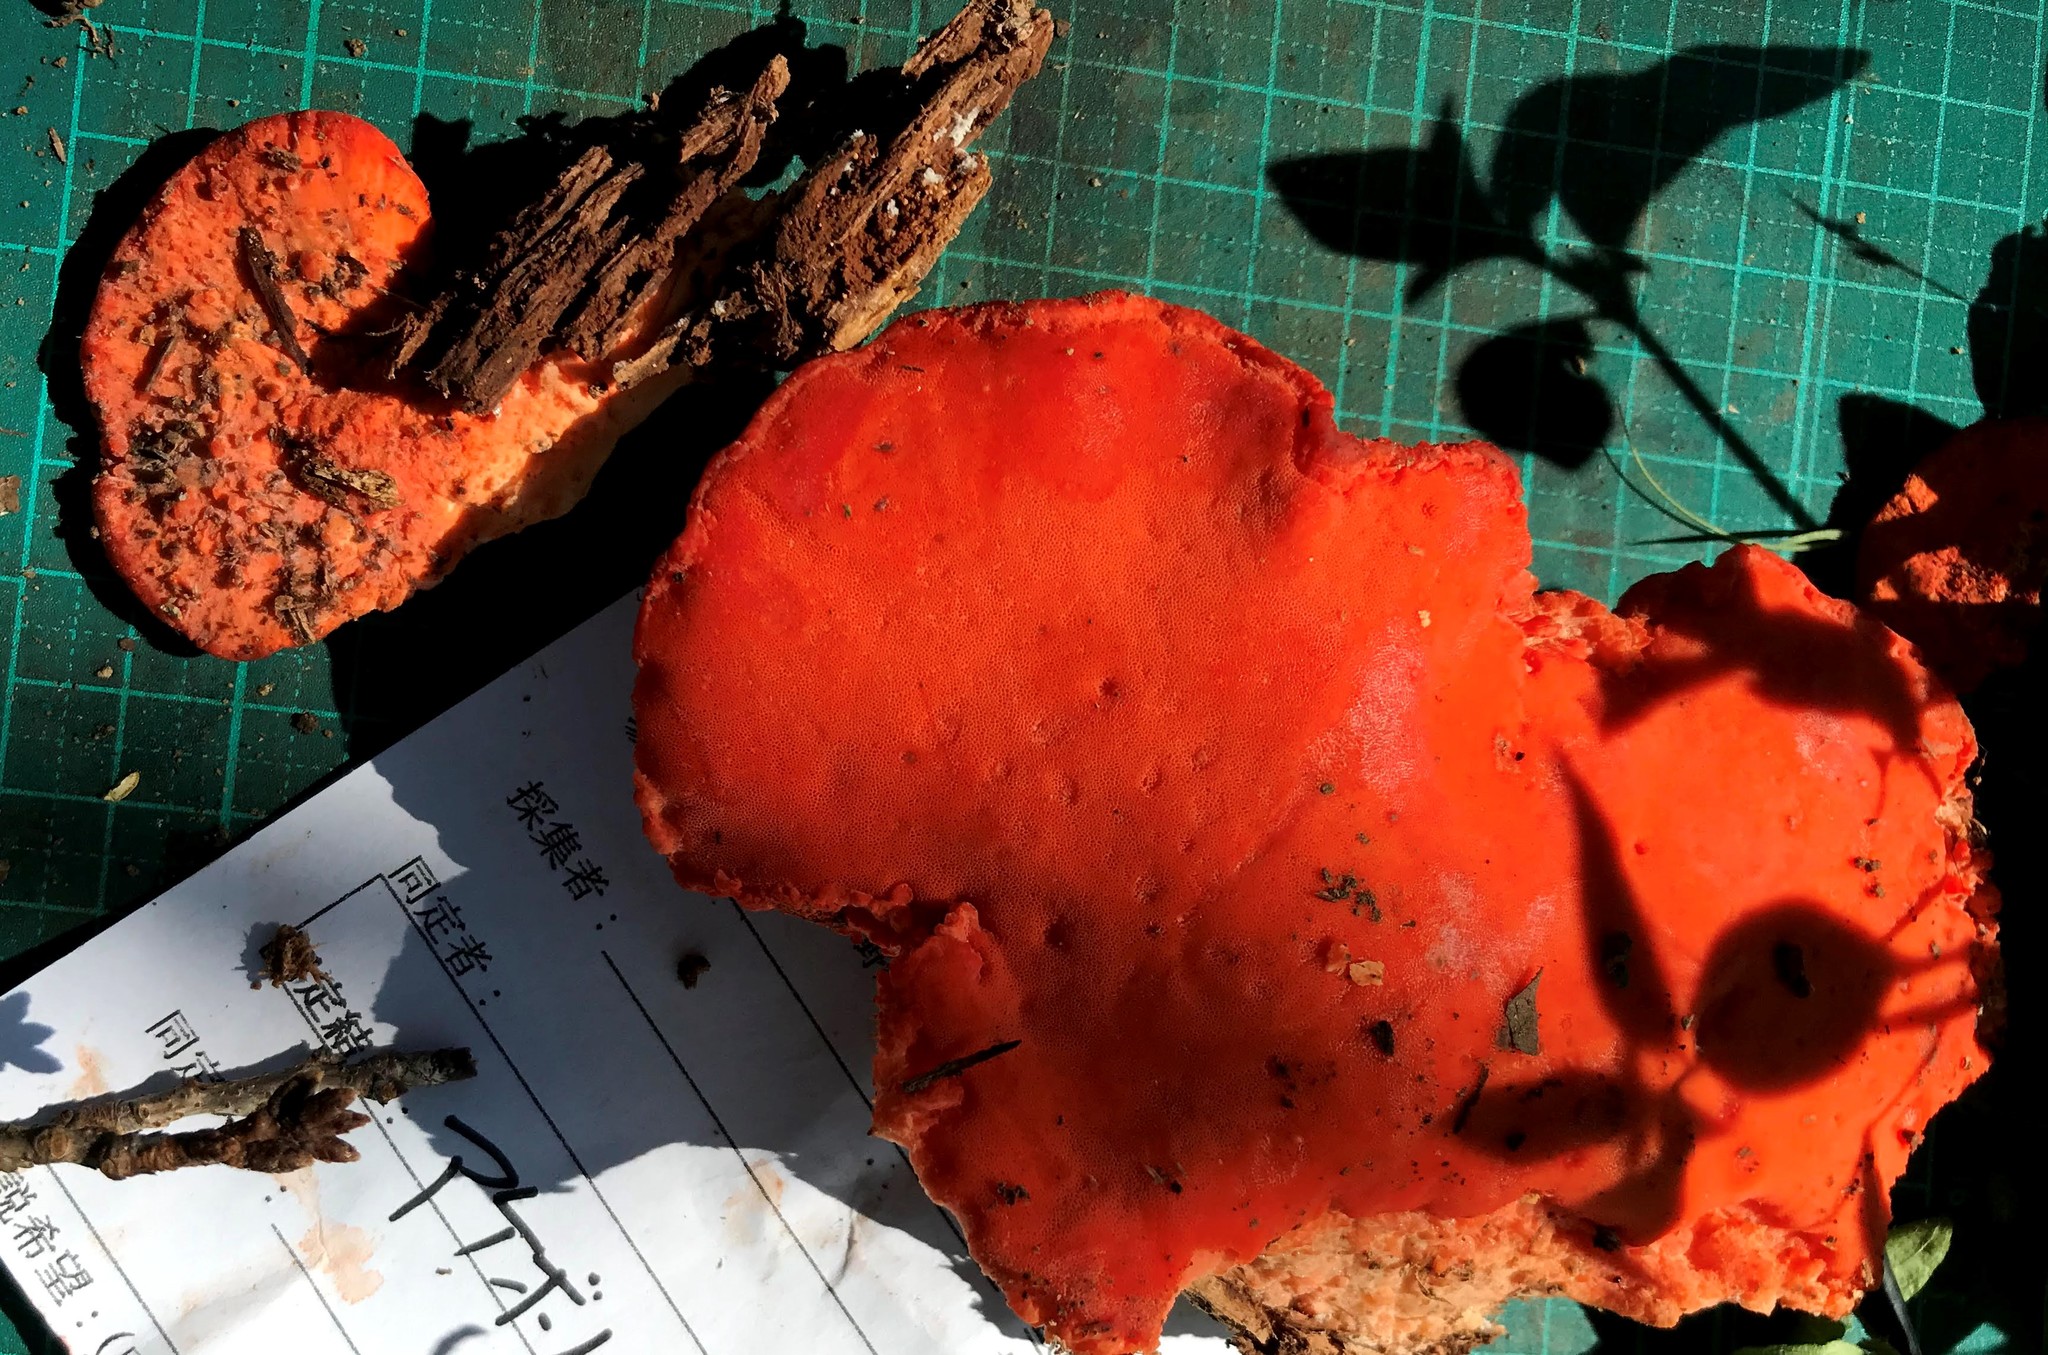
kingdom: Fungi
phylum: Basidiomycota
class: Agaricomycetes
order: Polyporales
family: Incrustoporiaceae
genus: Tyromyces
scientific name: Tyromyces incarnatus
